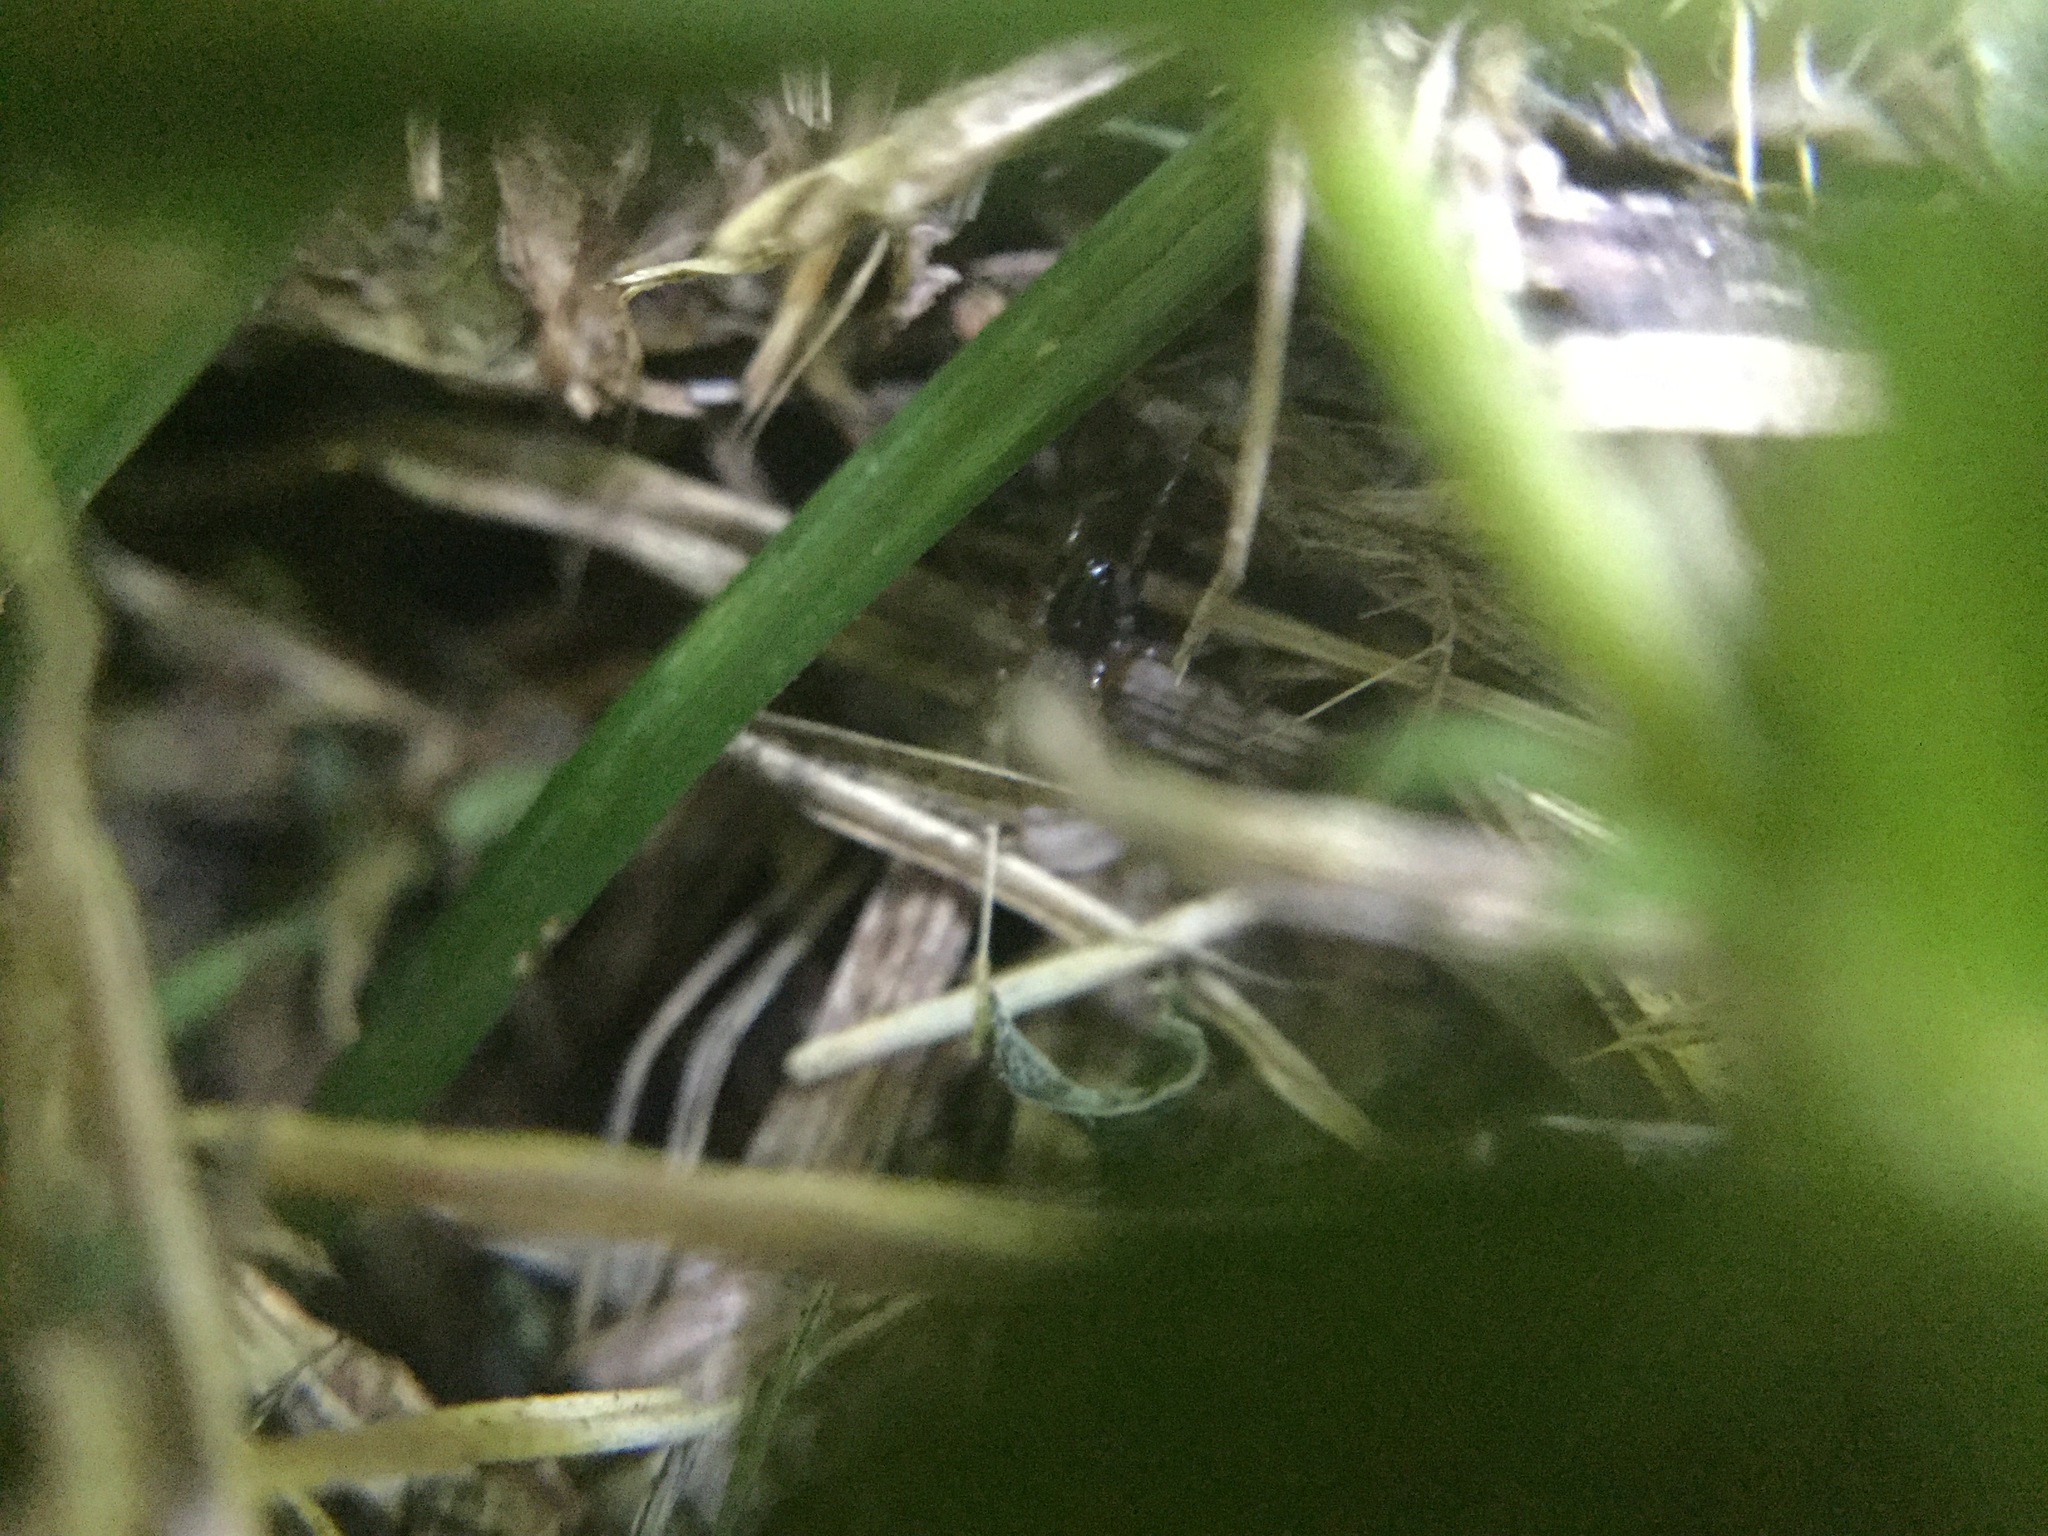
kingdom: Animalia
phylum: Arthropoda
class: Arachnida
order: Araneae
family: Lycosidae
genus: Allocosa
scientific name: Allocosa funerea
